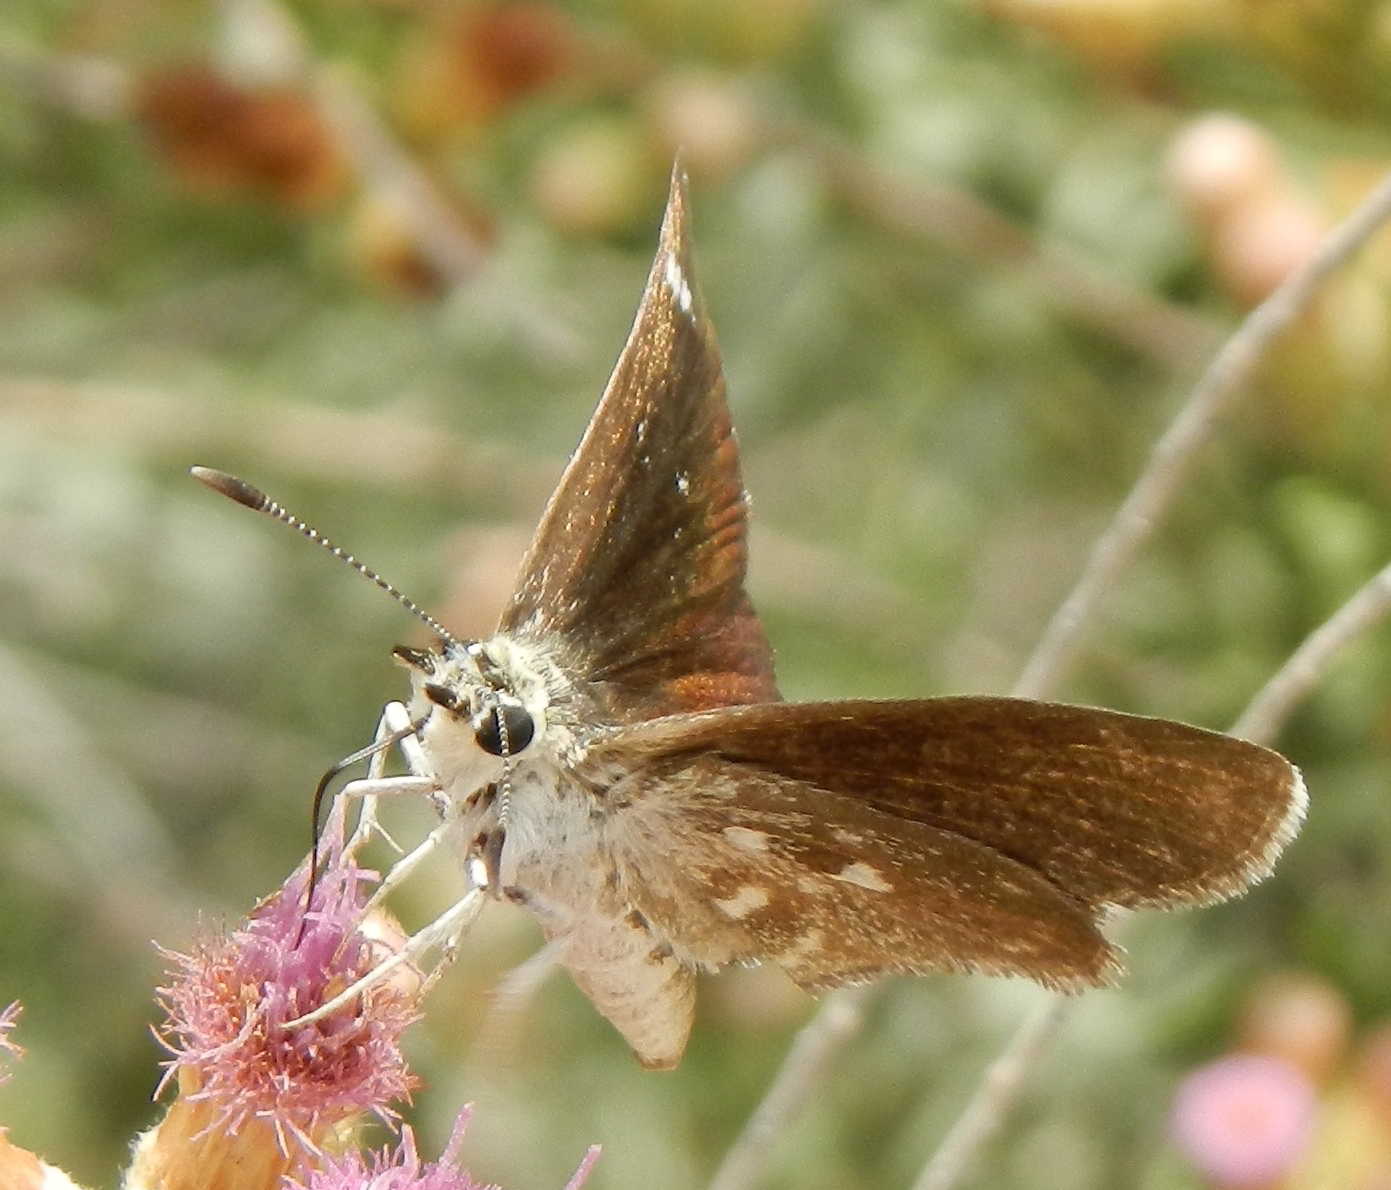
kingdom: Animalia
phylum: Arthropoda
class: Insecta
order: Lepidoptera
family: Hesperiidae
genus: Pholisora
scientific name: Pholisora libya
